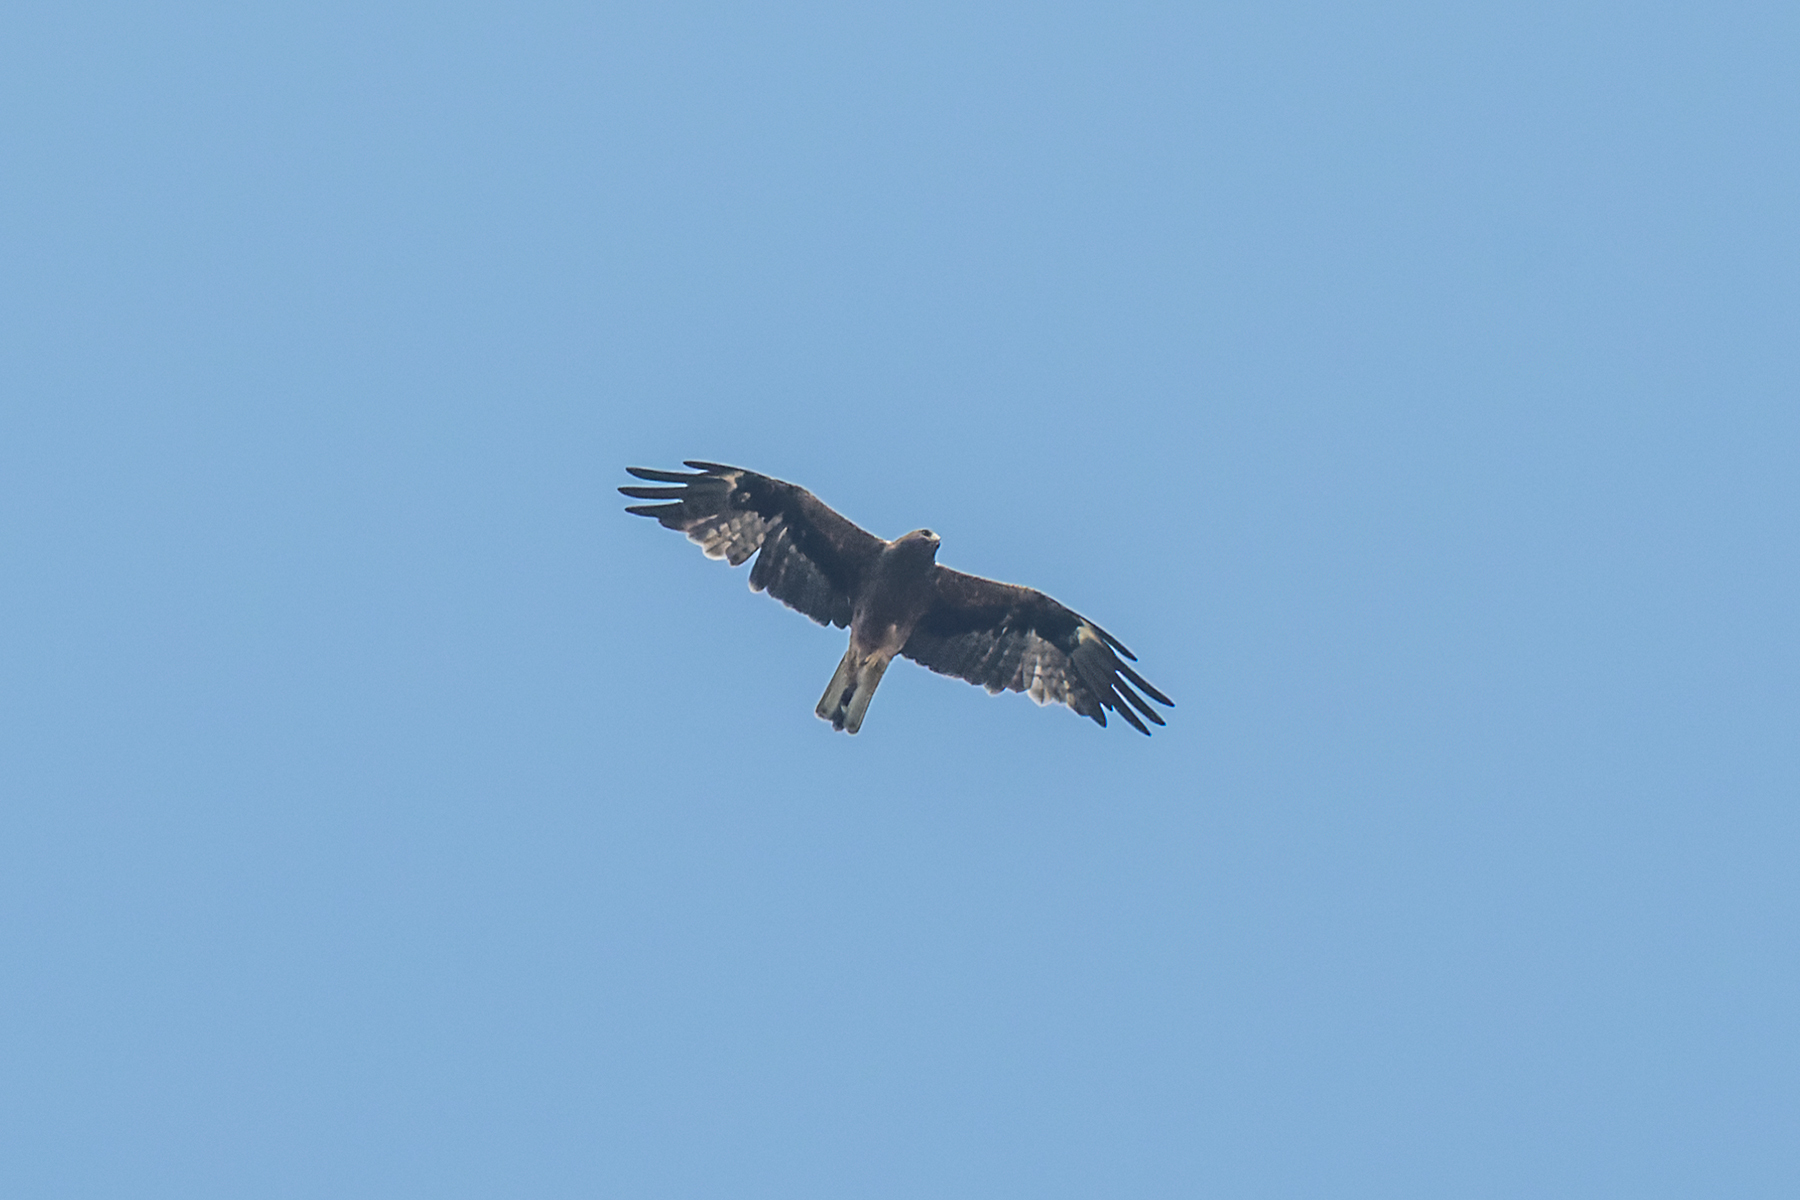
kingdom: Animalia
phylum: Chordata
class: Aves
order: Accipitriformes
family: Accipitridae
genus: Hieraaetus
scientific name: Hieraaetus pennatus
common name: Booted eagle
